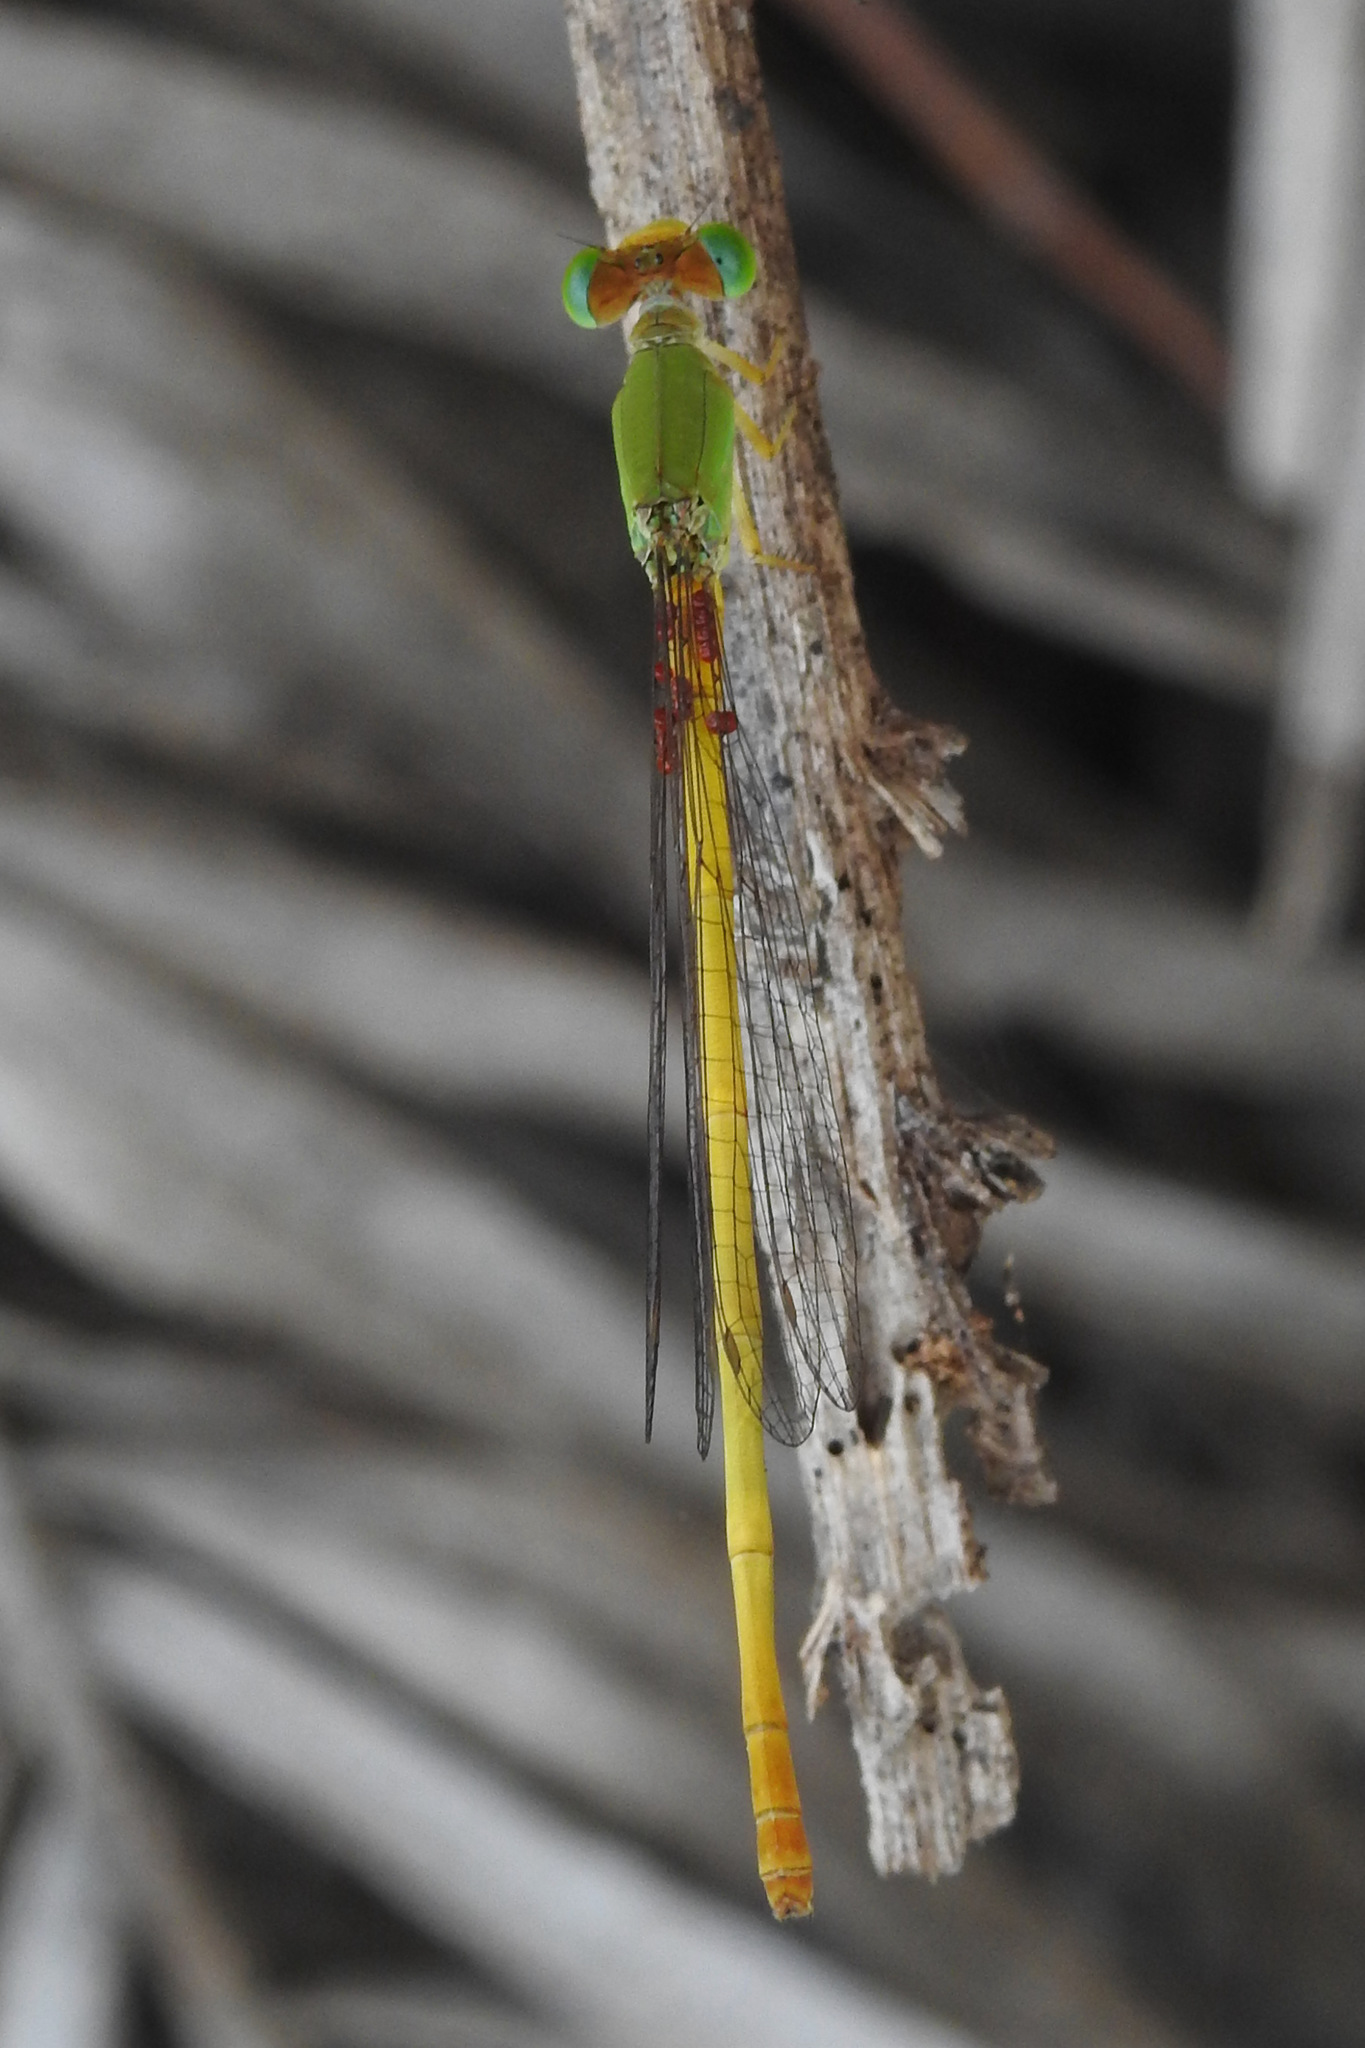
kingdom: Animalia
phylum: Arthropoda
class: Insecta
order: Odonata
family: Coenagrionidae
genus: Ceriagrion
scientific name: Ceriagrion coromandelianum
